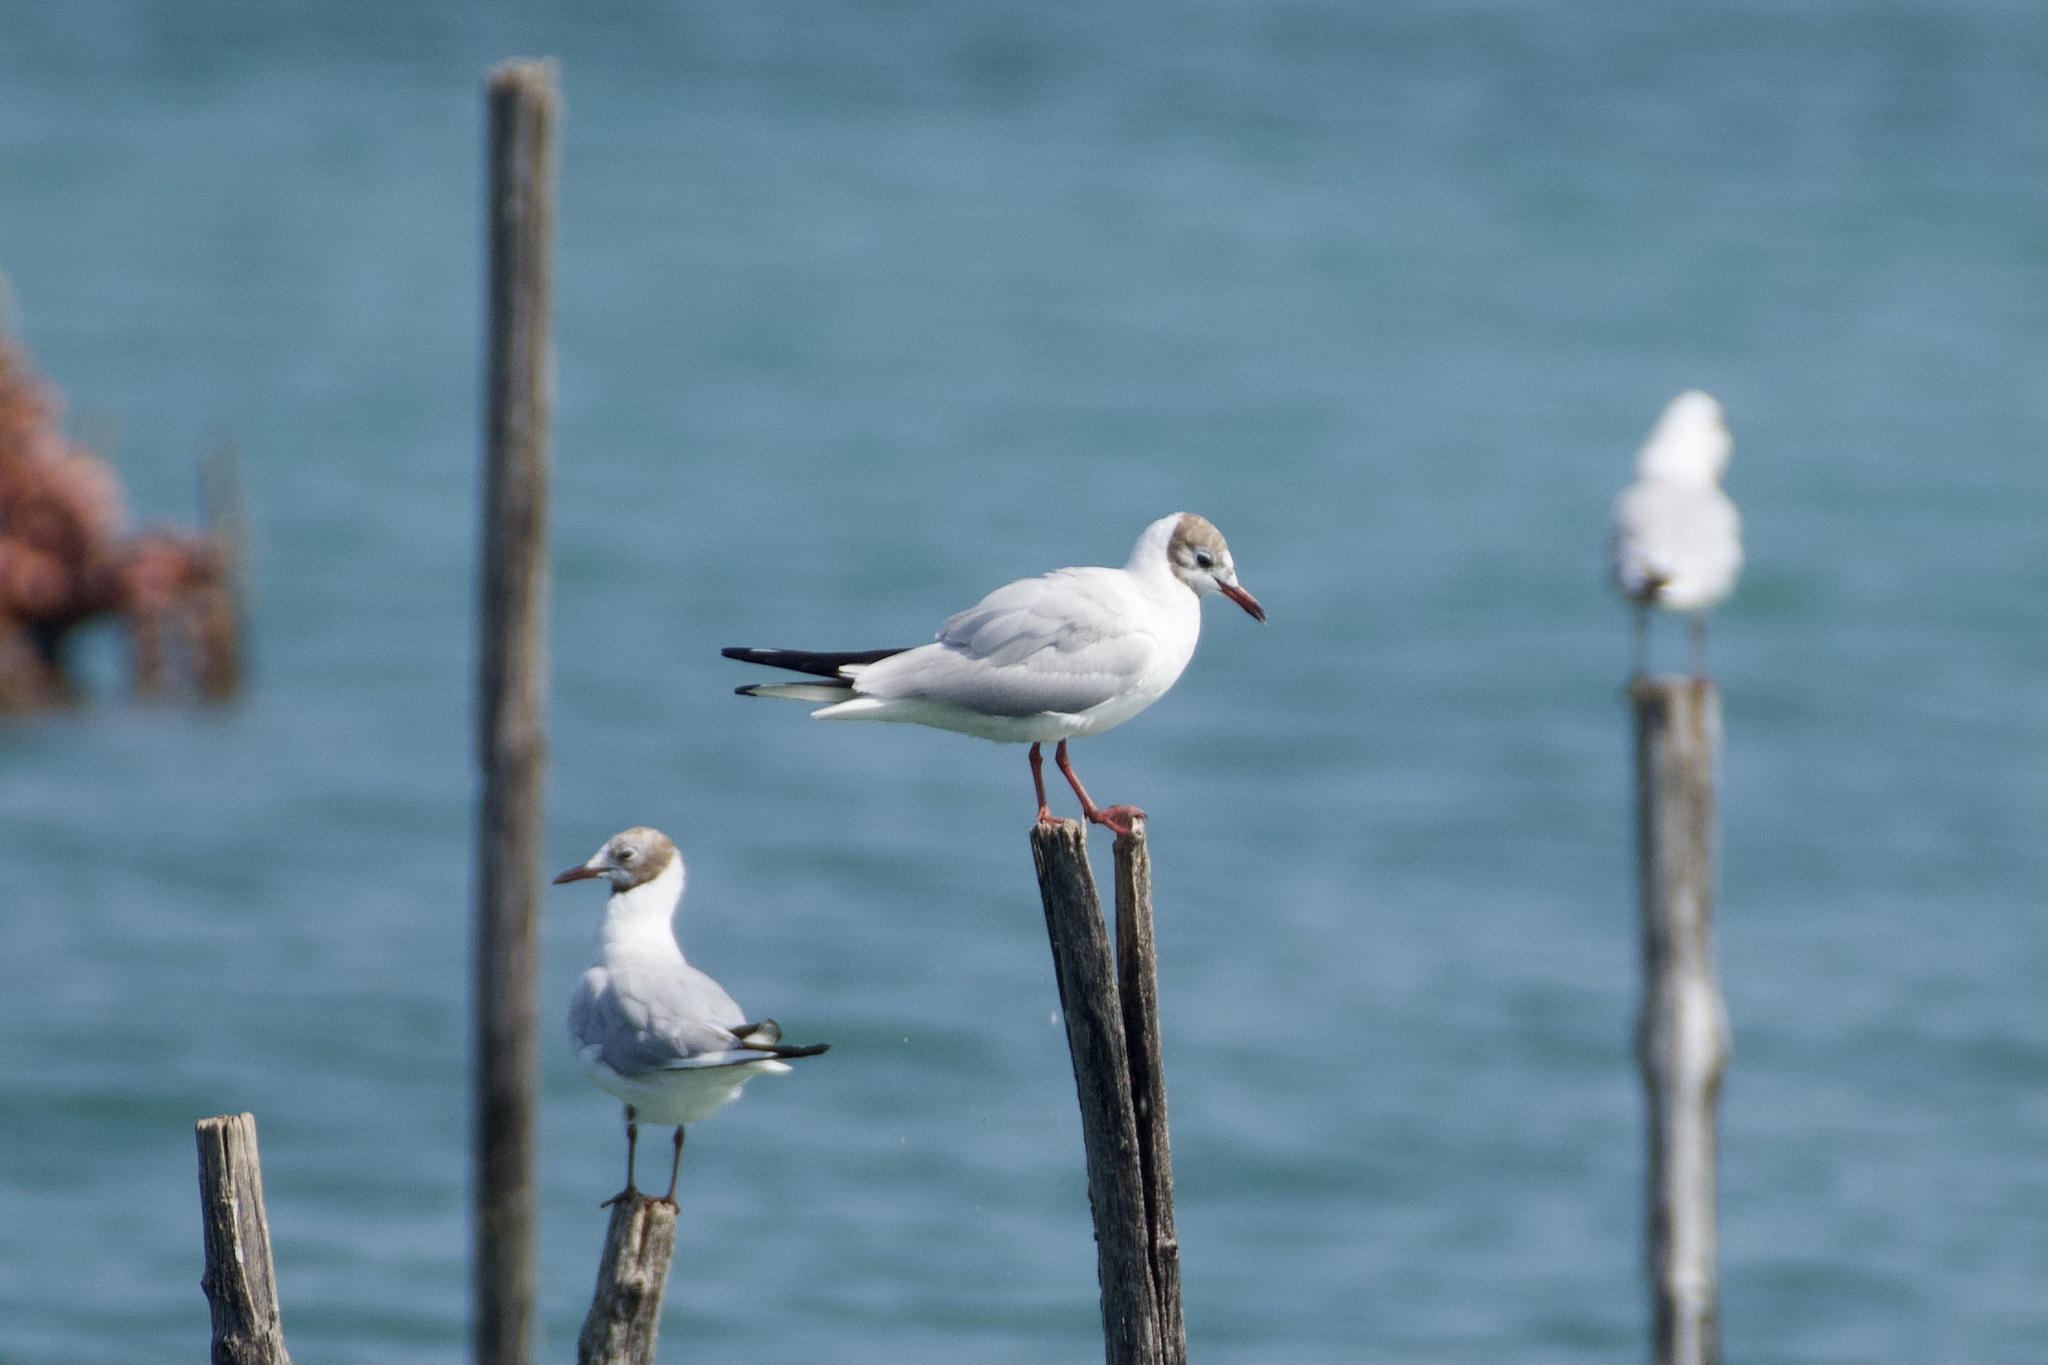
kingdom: Animalia
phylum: Chordata
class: Aves
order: Charadriiformes
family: Laridae
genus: Chroicocephalus
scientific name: Chroicocephalus ridibundus
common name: Black-headed gull
